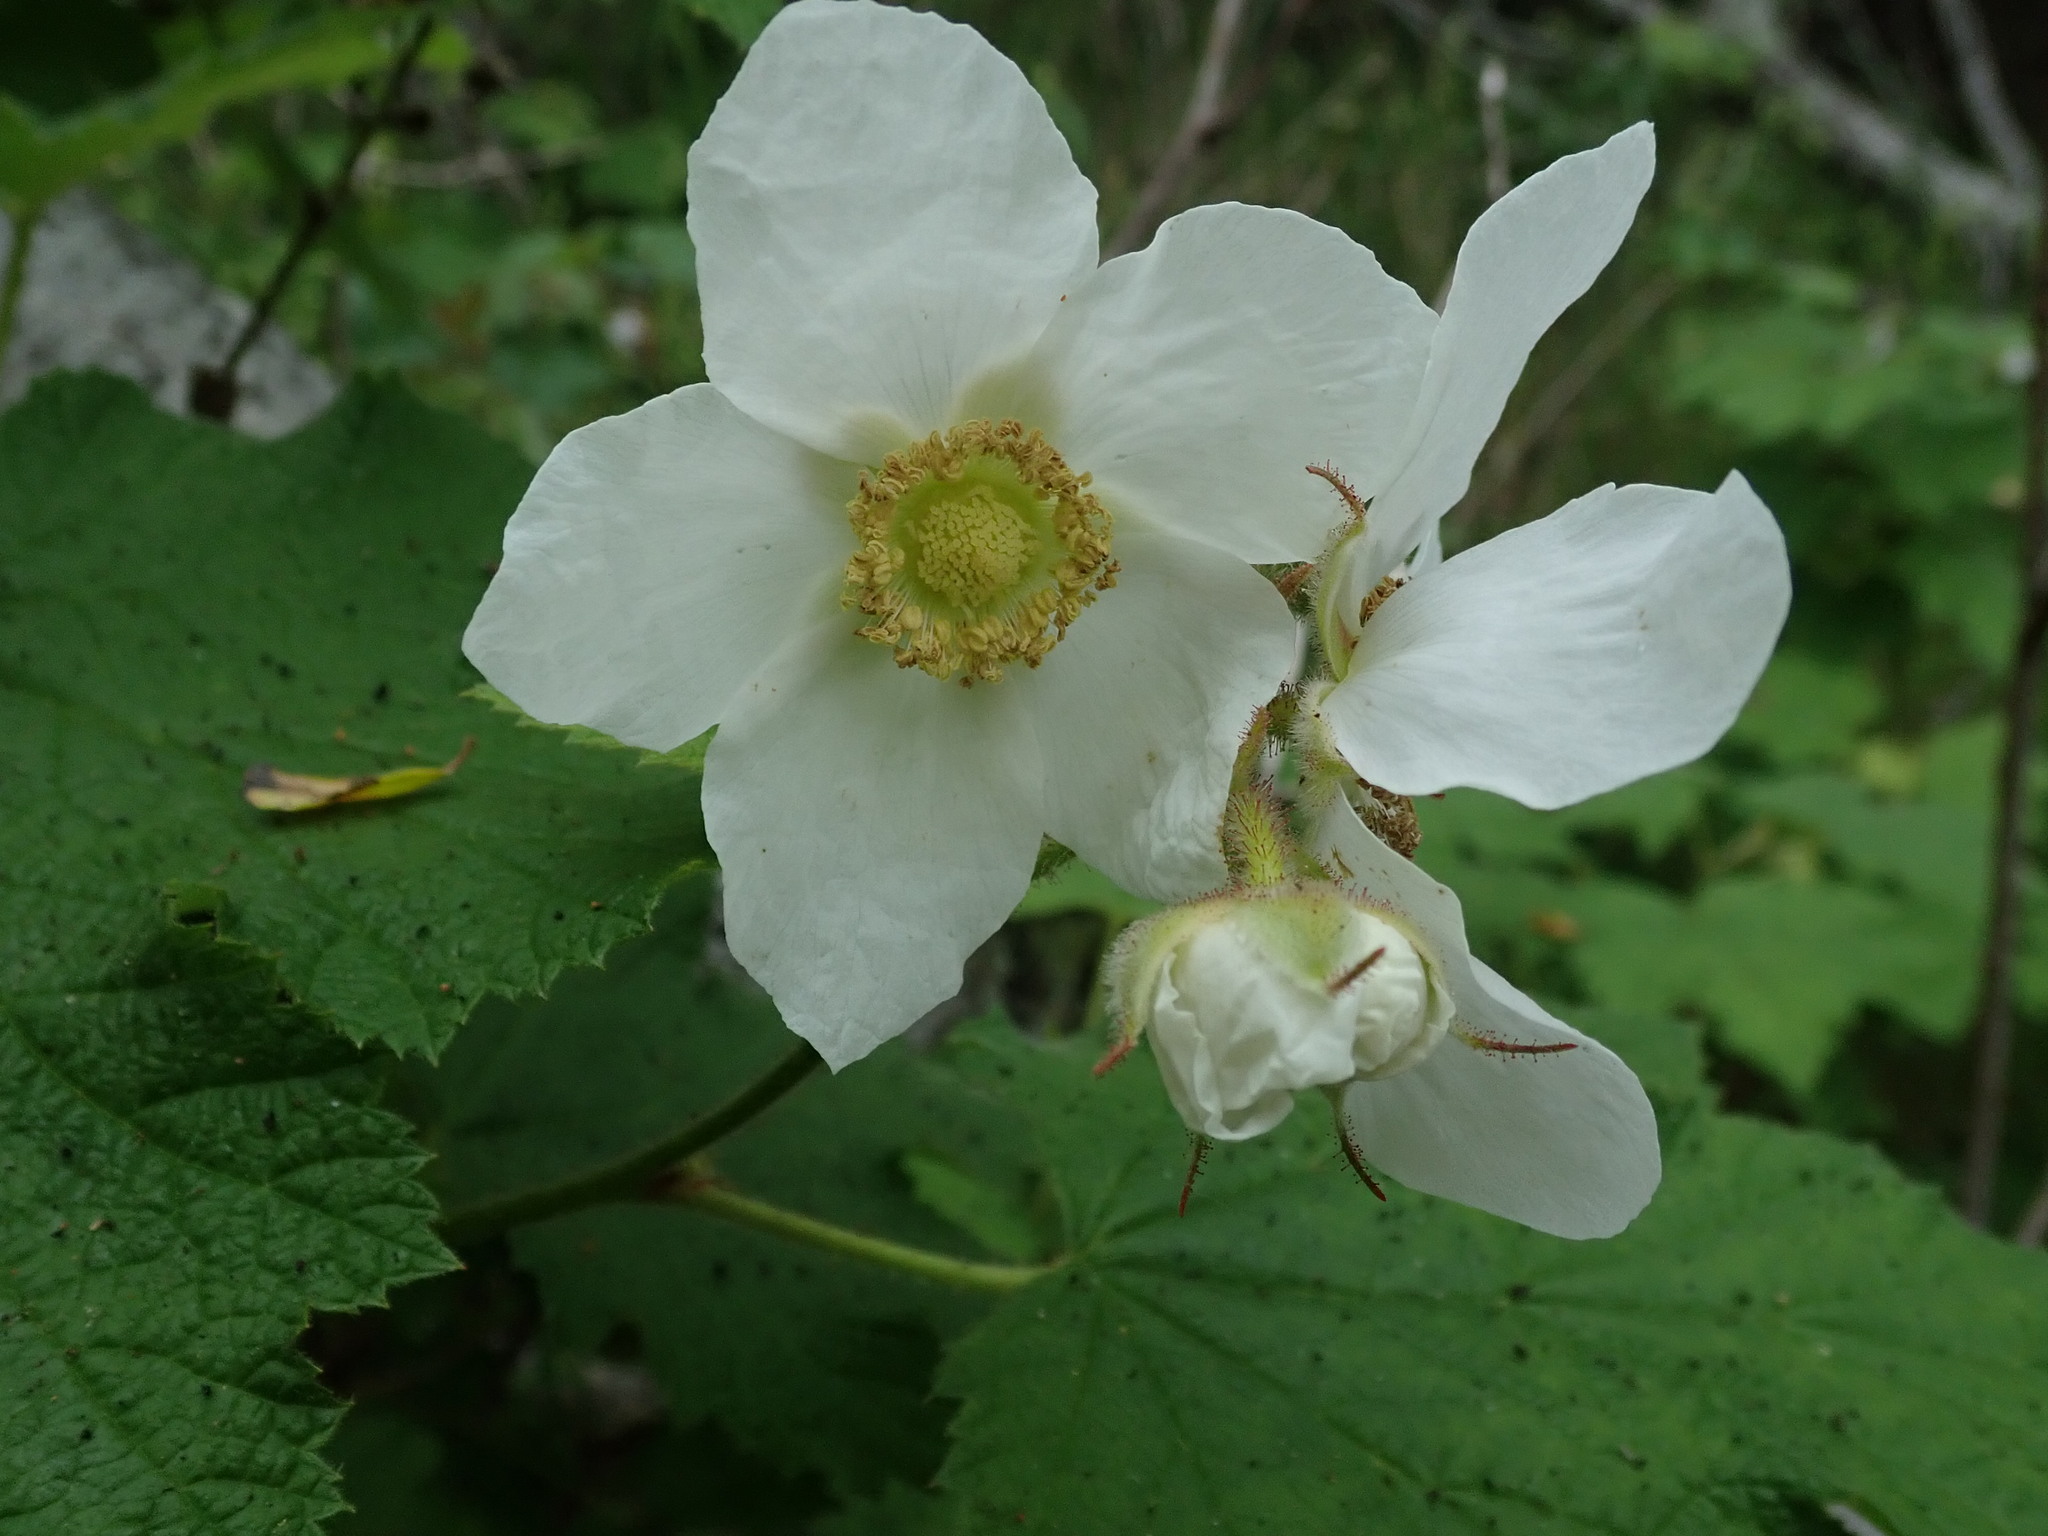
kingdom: Plantae
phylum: Tracheophyta
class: Magnoliopsida
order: Rosales
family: Rosaceae
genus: Rubus
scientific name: Rubus parviflorus
